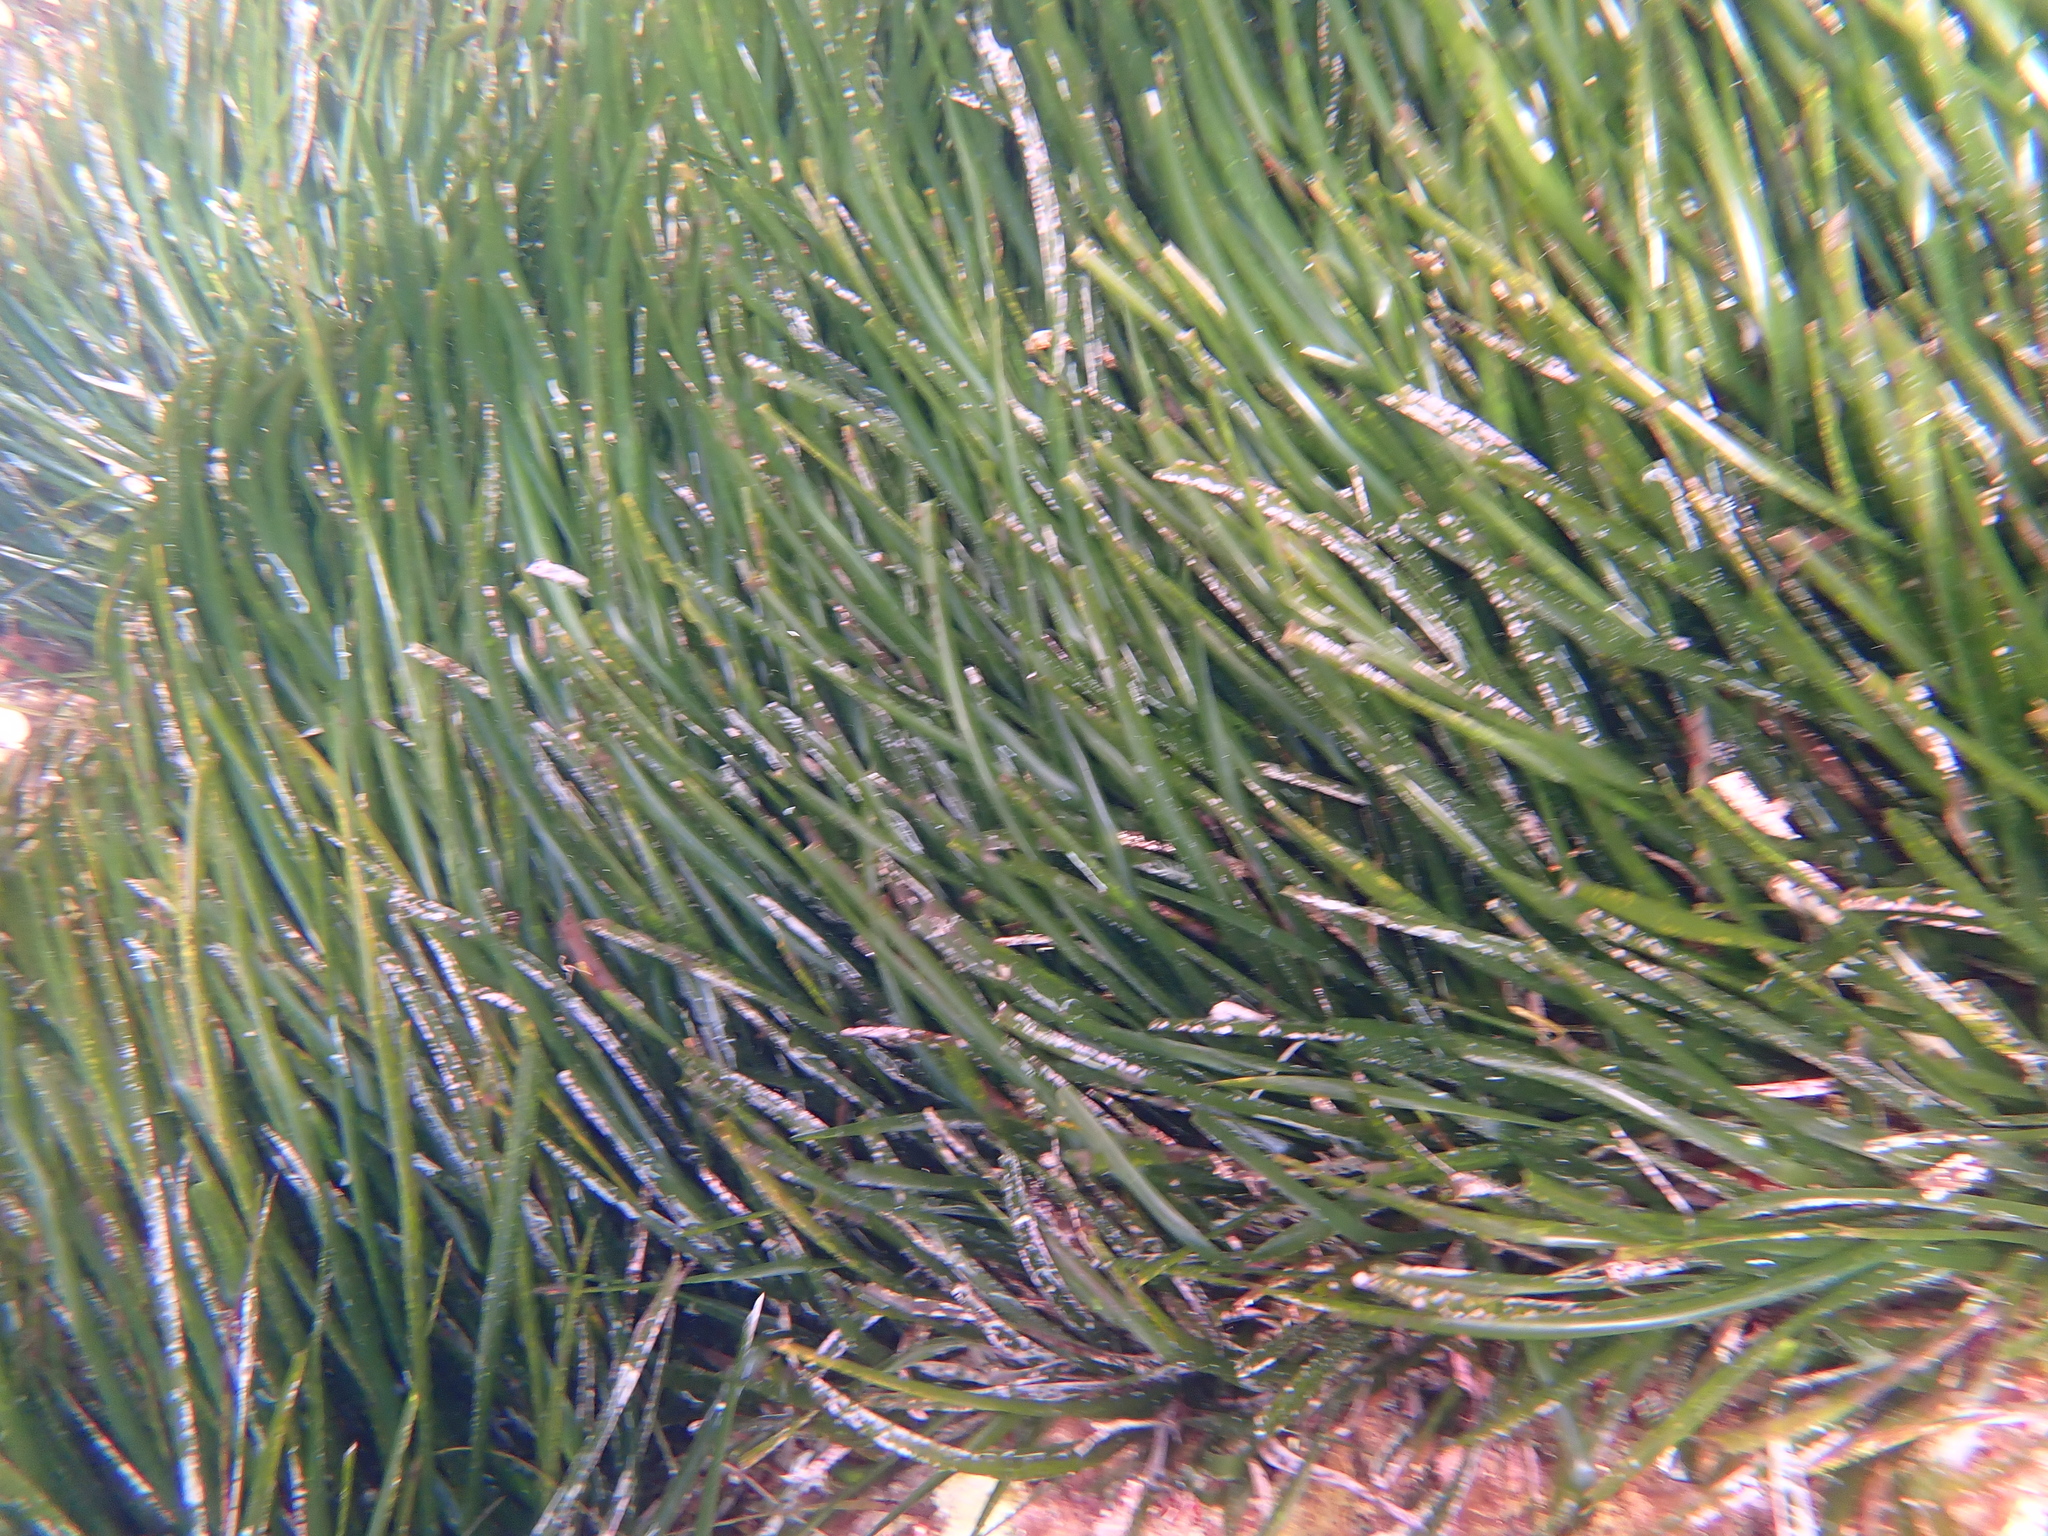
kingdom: Plantae
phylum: Tracheophyta
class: Liliopsida
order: Alismatales
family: Posidoniaceae
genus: Posidonia
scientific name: Posidonia oceanica
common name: Mediterranean tapeweed
